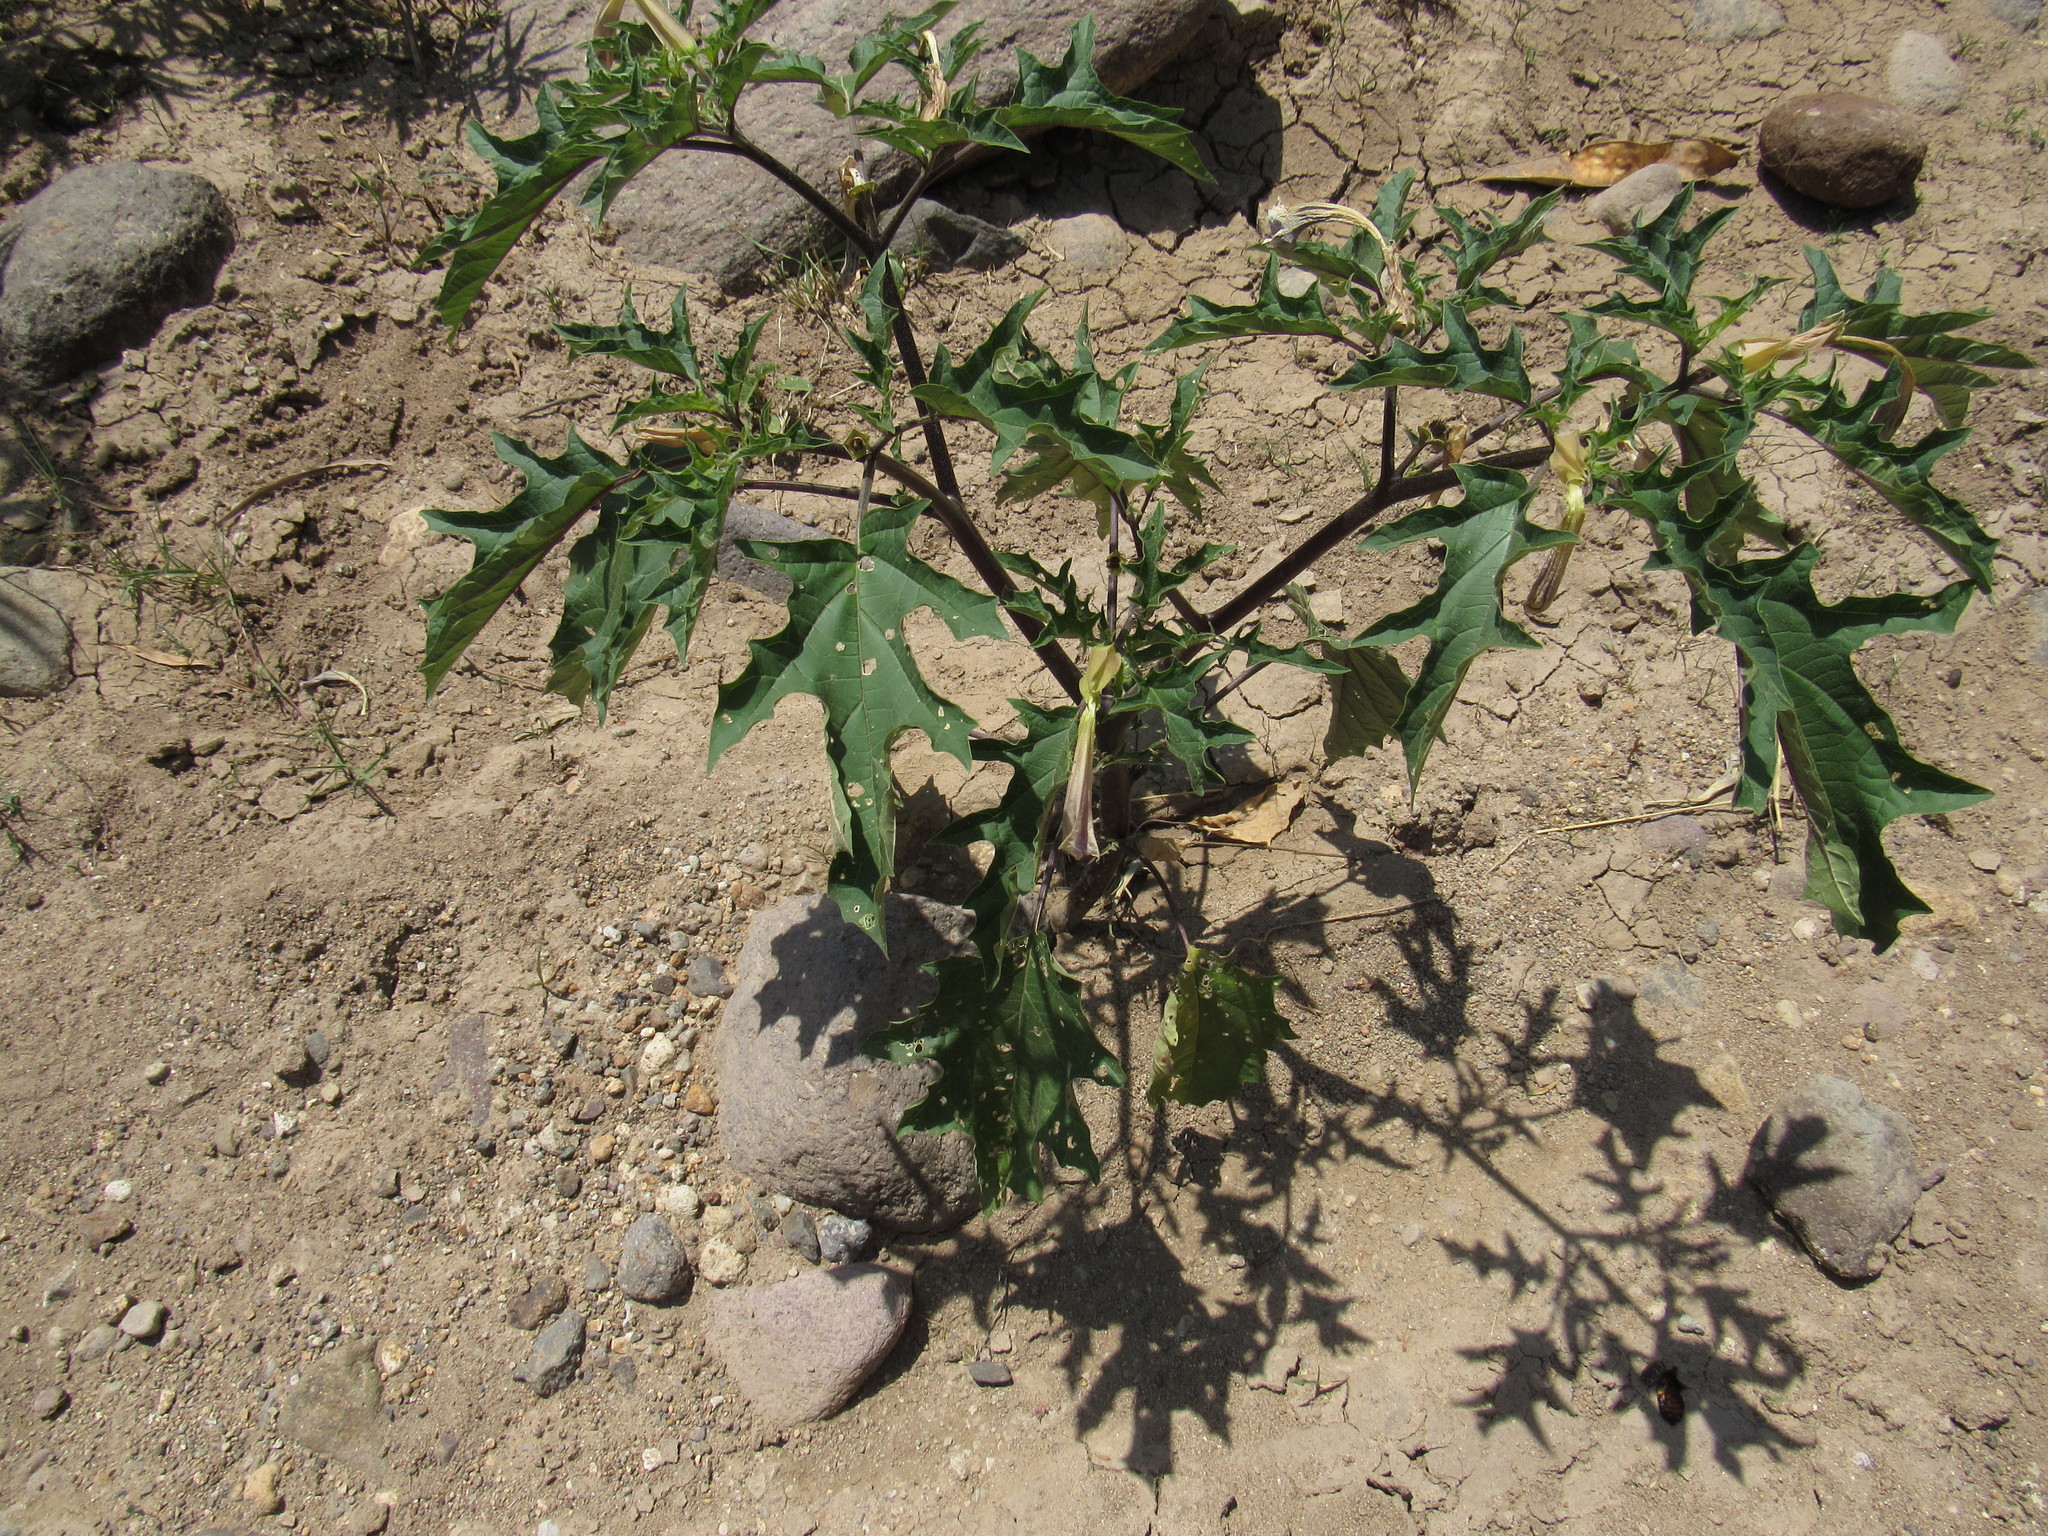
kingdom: Plantae
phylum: Tracheophyta
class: Magnoliopsida
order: Solanales
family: Solanaceae
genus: Datura
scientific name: Datura stramonium
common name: Thorn-apple
